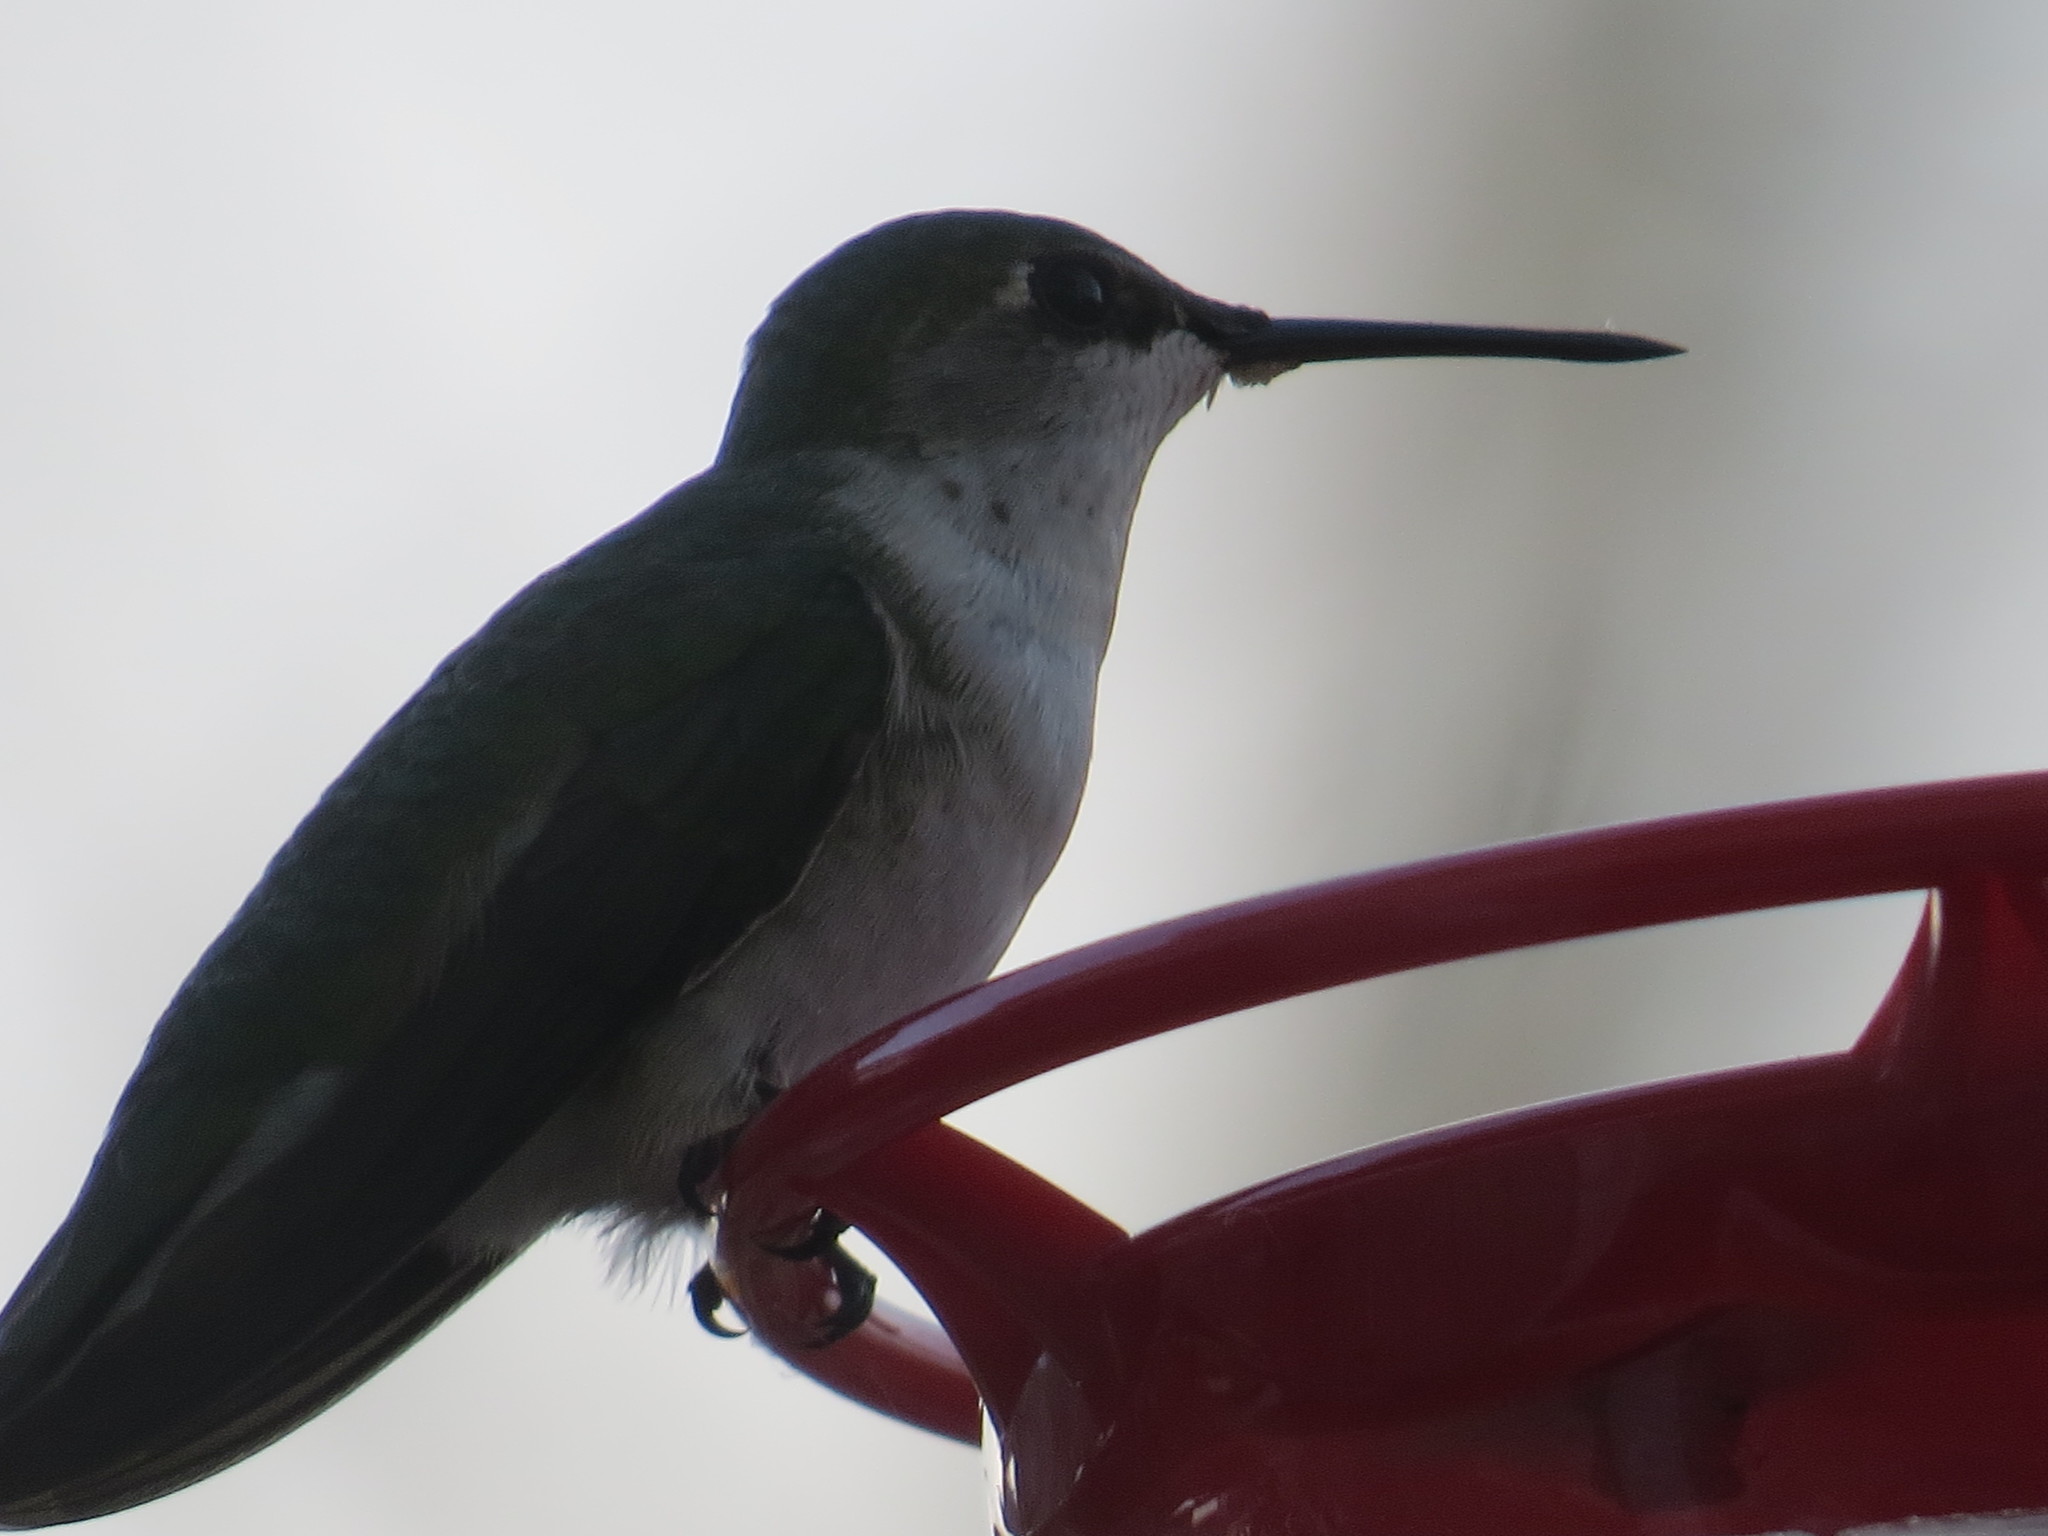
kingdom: Animalia
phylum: Chordata
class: Aves
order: Apodiformes
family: Trochilidae
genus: Archilochus
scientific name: Archilochus colubris
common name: Ruby-throated hummingbird
